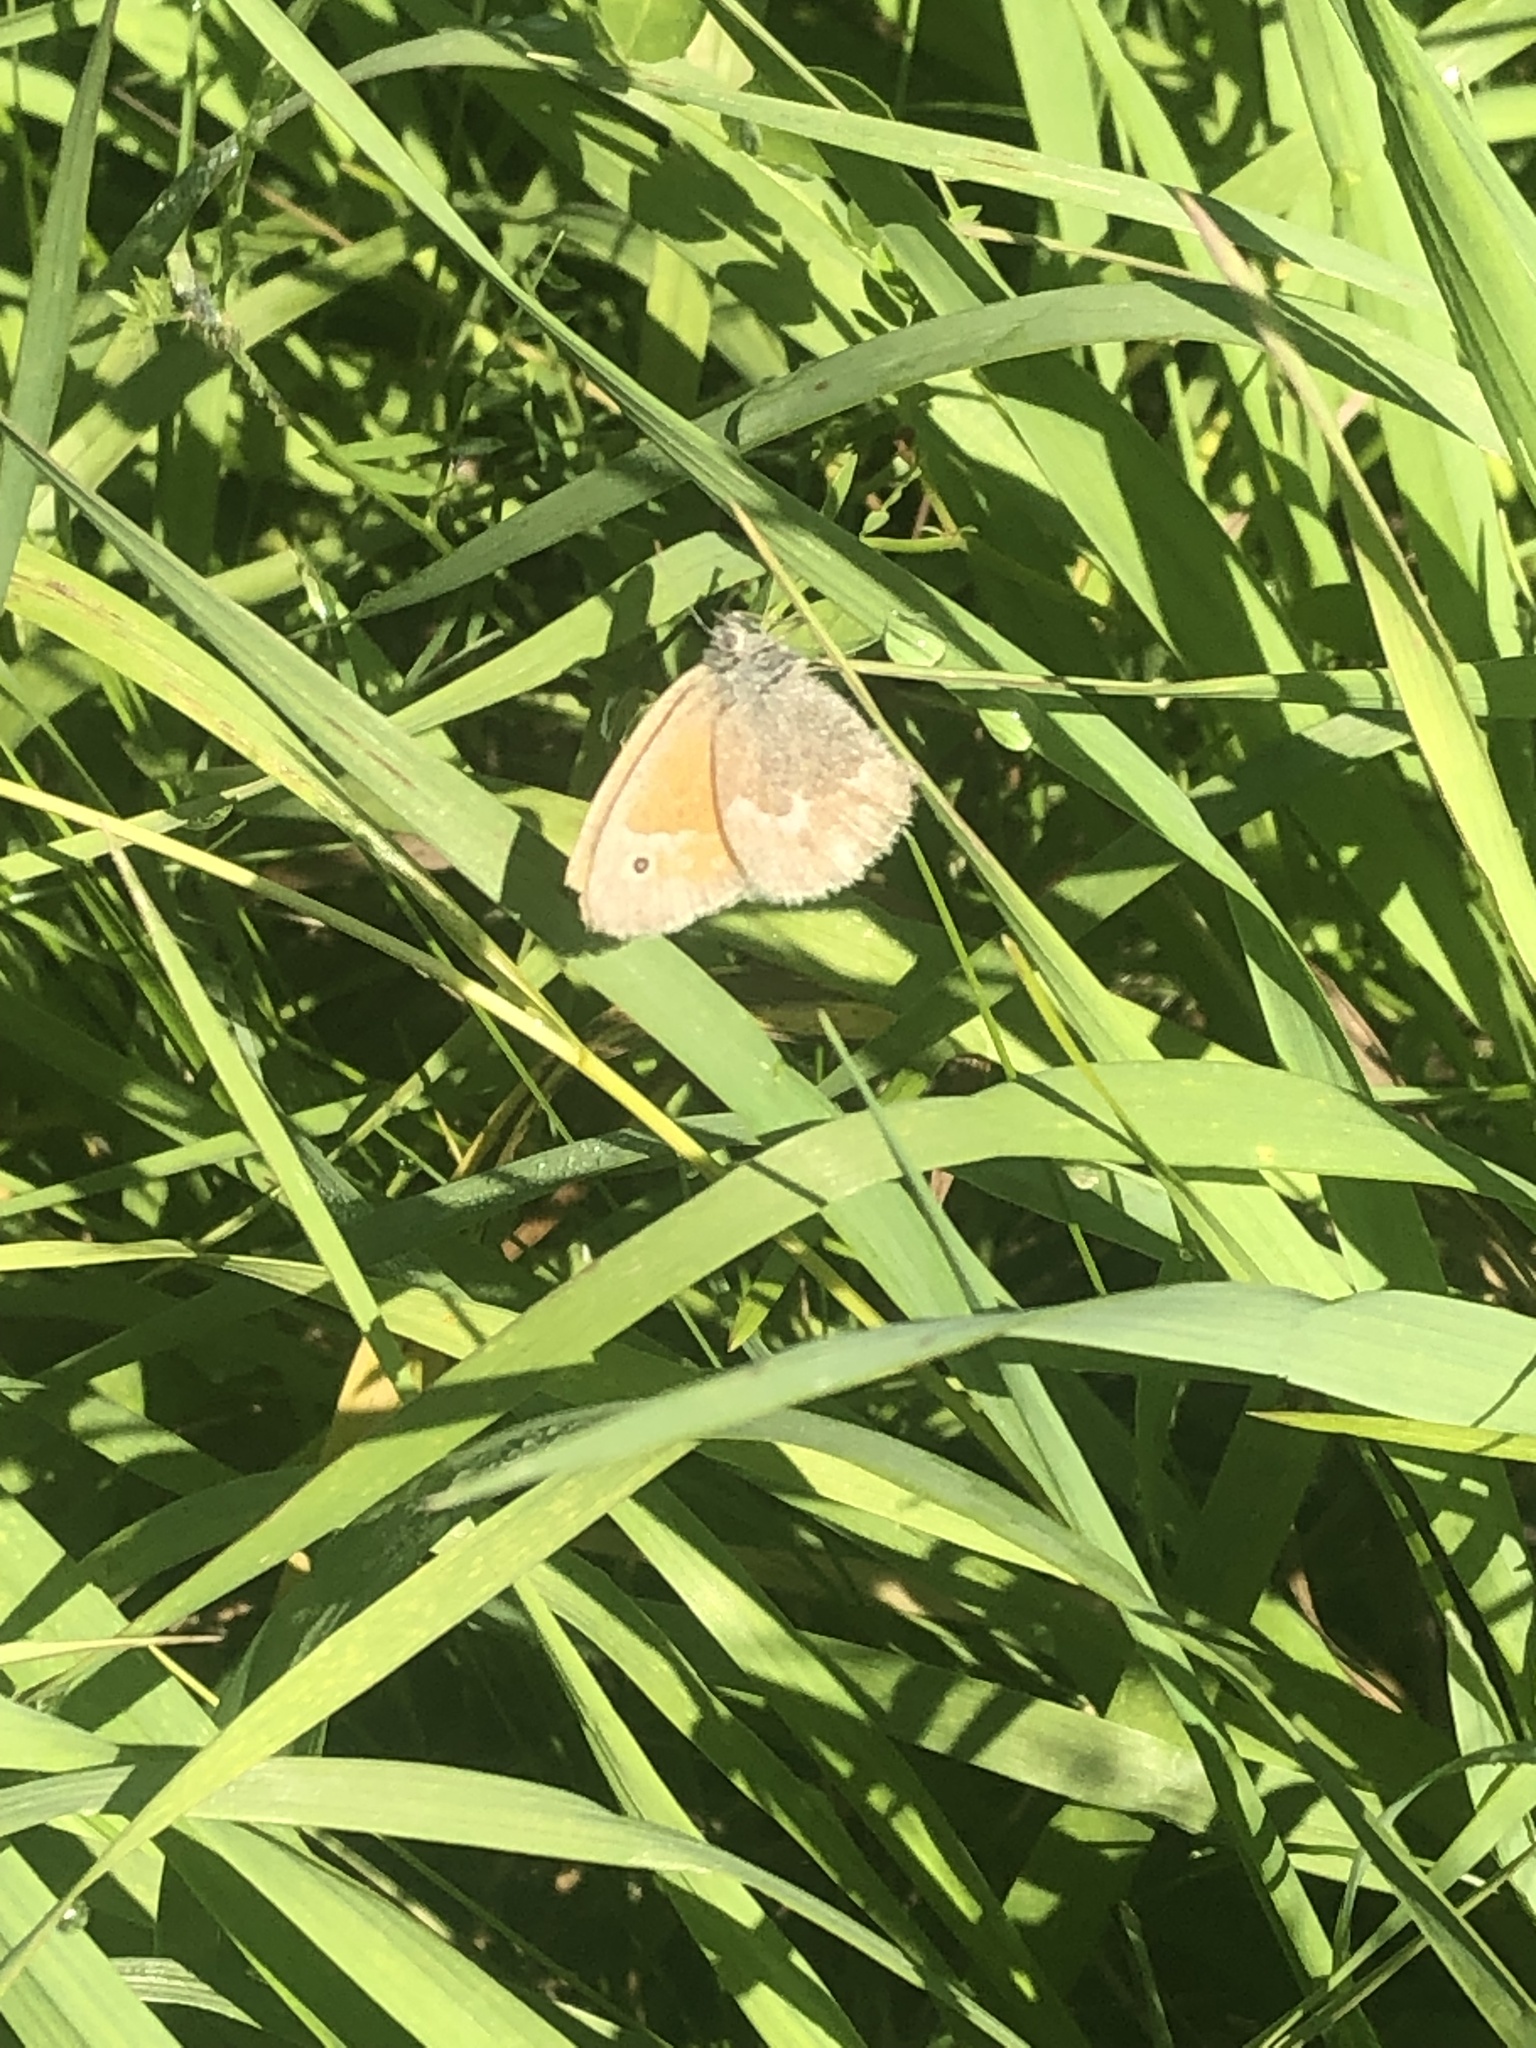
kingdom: Animalia
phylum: Arthropoda
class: Insecta
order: Lepidoptera
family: Nymphalidae
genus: Coenonympha
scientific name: Coenonympha california
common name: Common ringlet
